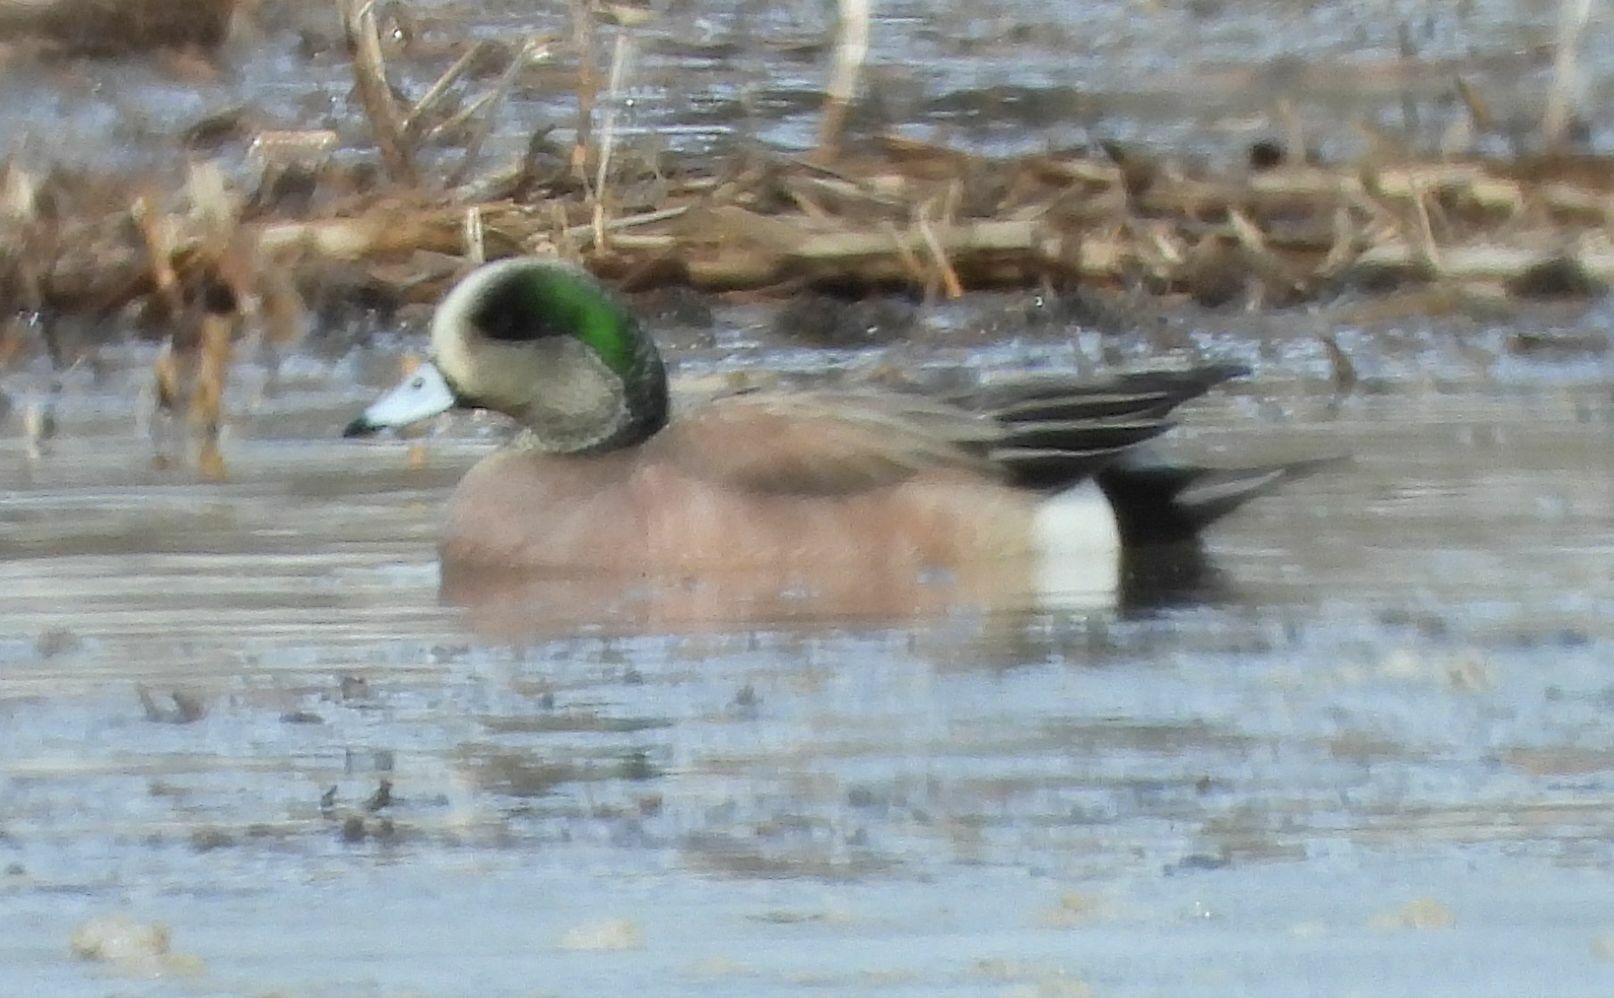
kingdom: Animalia
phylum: Chordata
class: Aves
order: Anseriformes
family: Anatidae
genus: Mareca
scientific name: Mareca americana
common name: American wigeon
